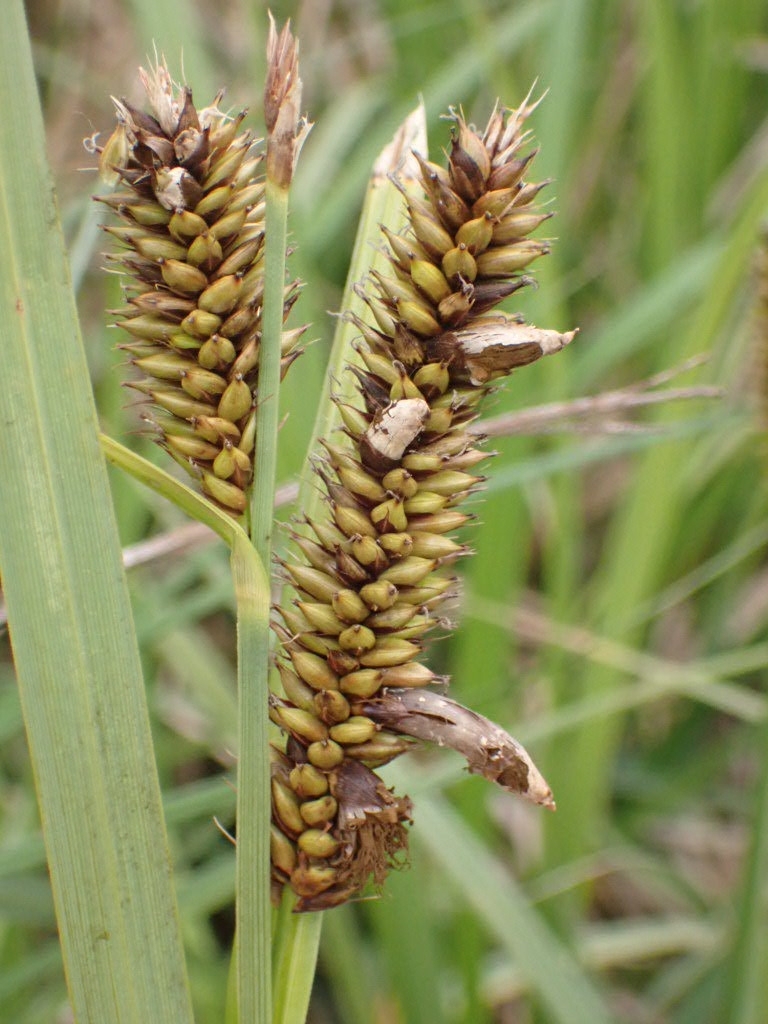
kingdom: Fungi
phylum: Basidiomycota
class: Ustilaginomycetes
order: Ustilaginales
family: Anthracoideaceae
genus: Farysia
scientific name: Farysia thuemenii
